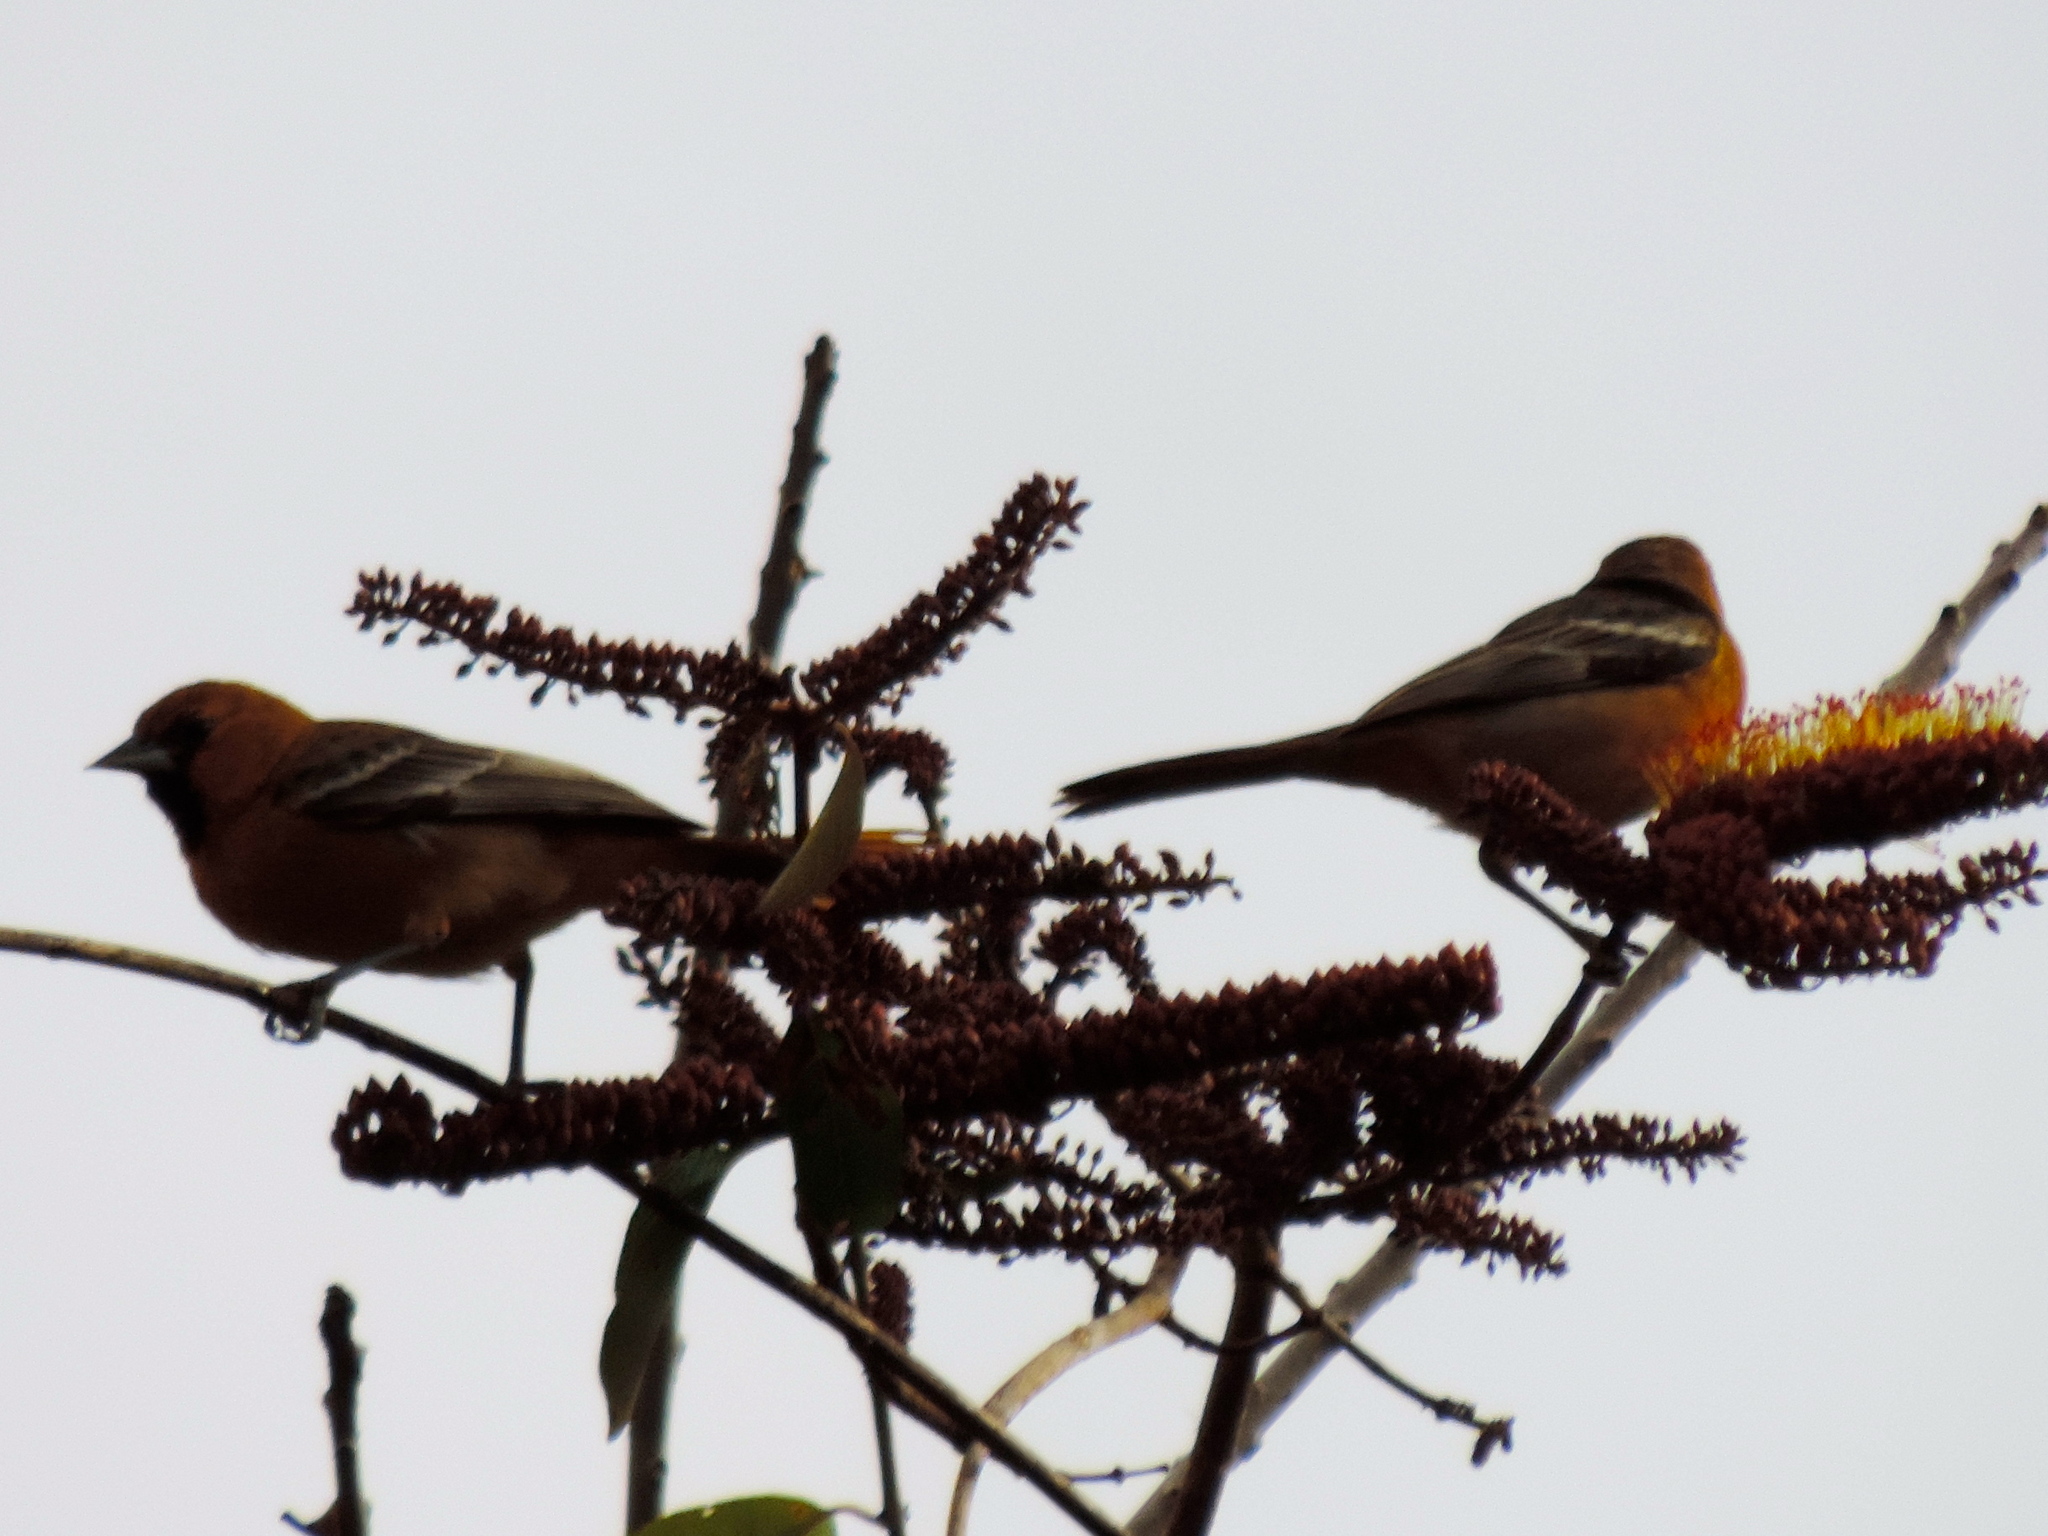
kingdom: Animalia
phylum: Chordata
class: Aves
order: Passeriformes
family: Icteridae
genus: Icterus
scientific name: Icterus pustulatus
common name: Streak-backed oriole
